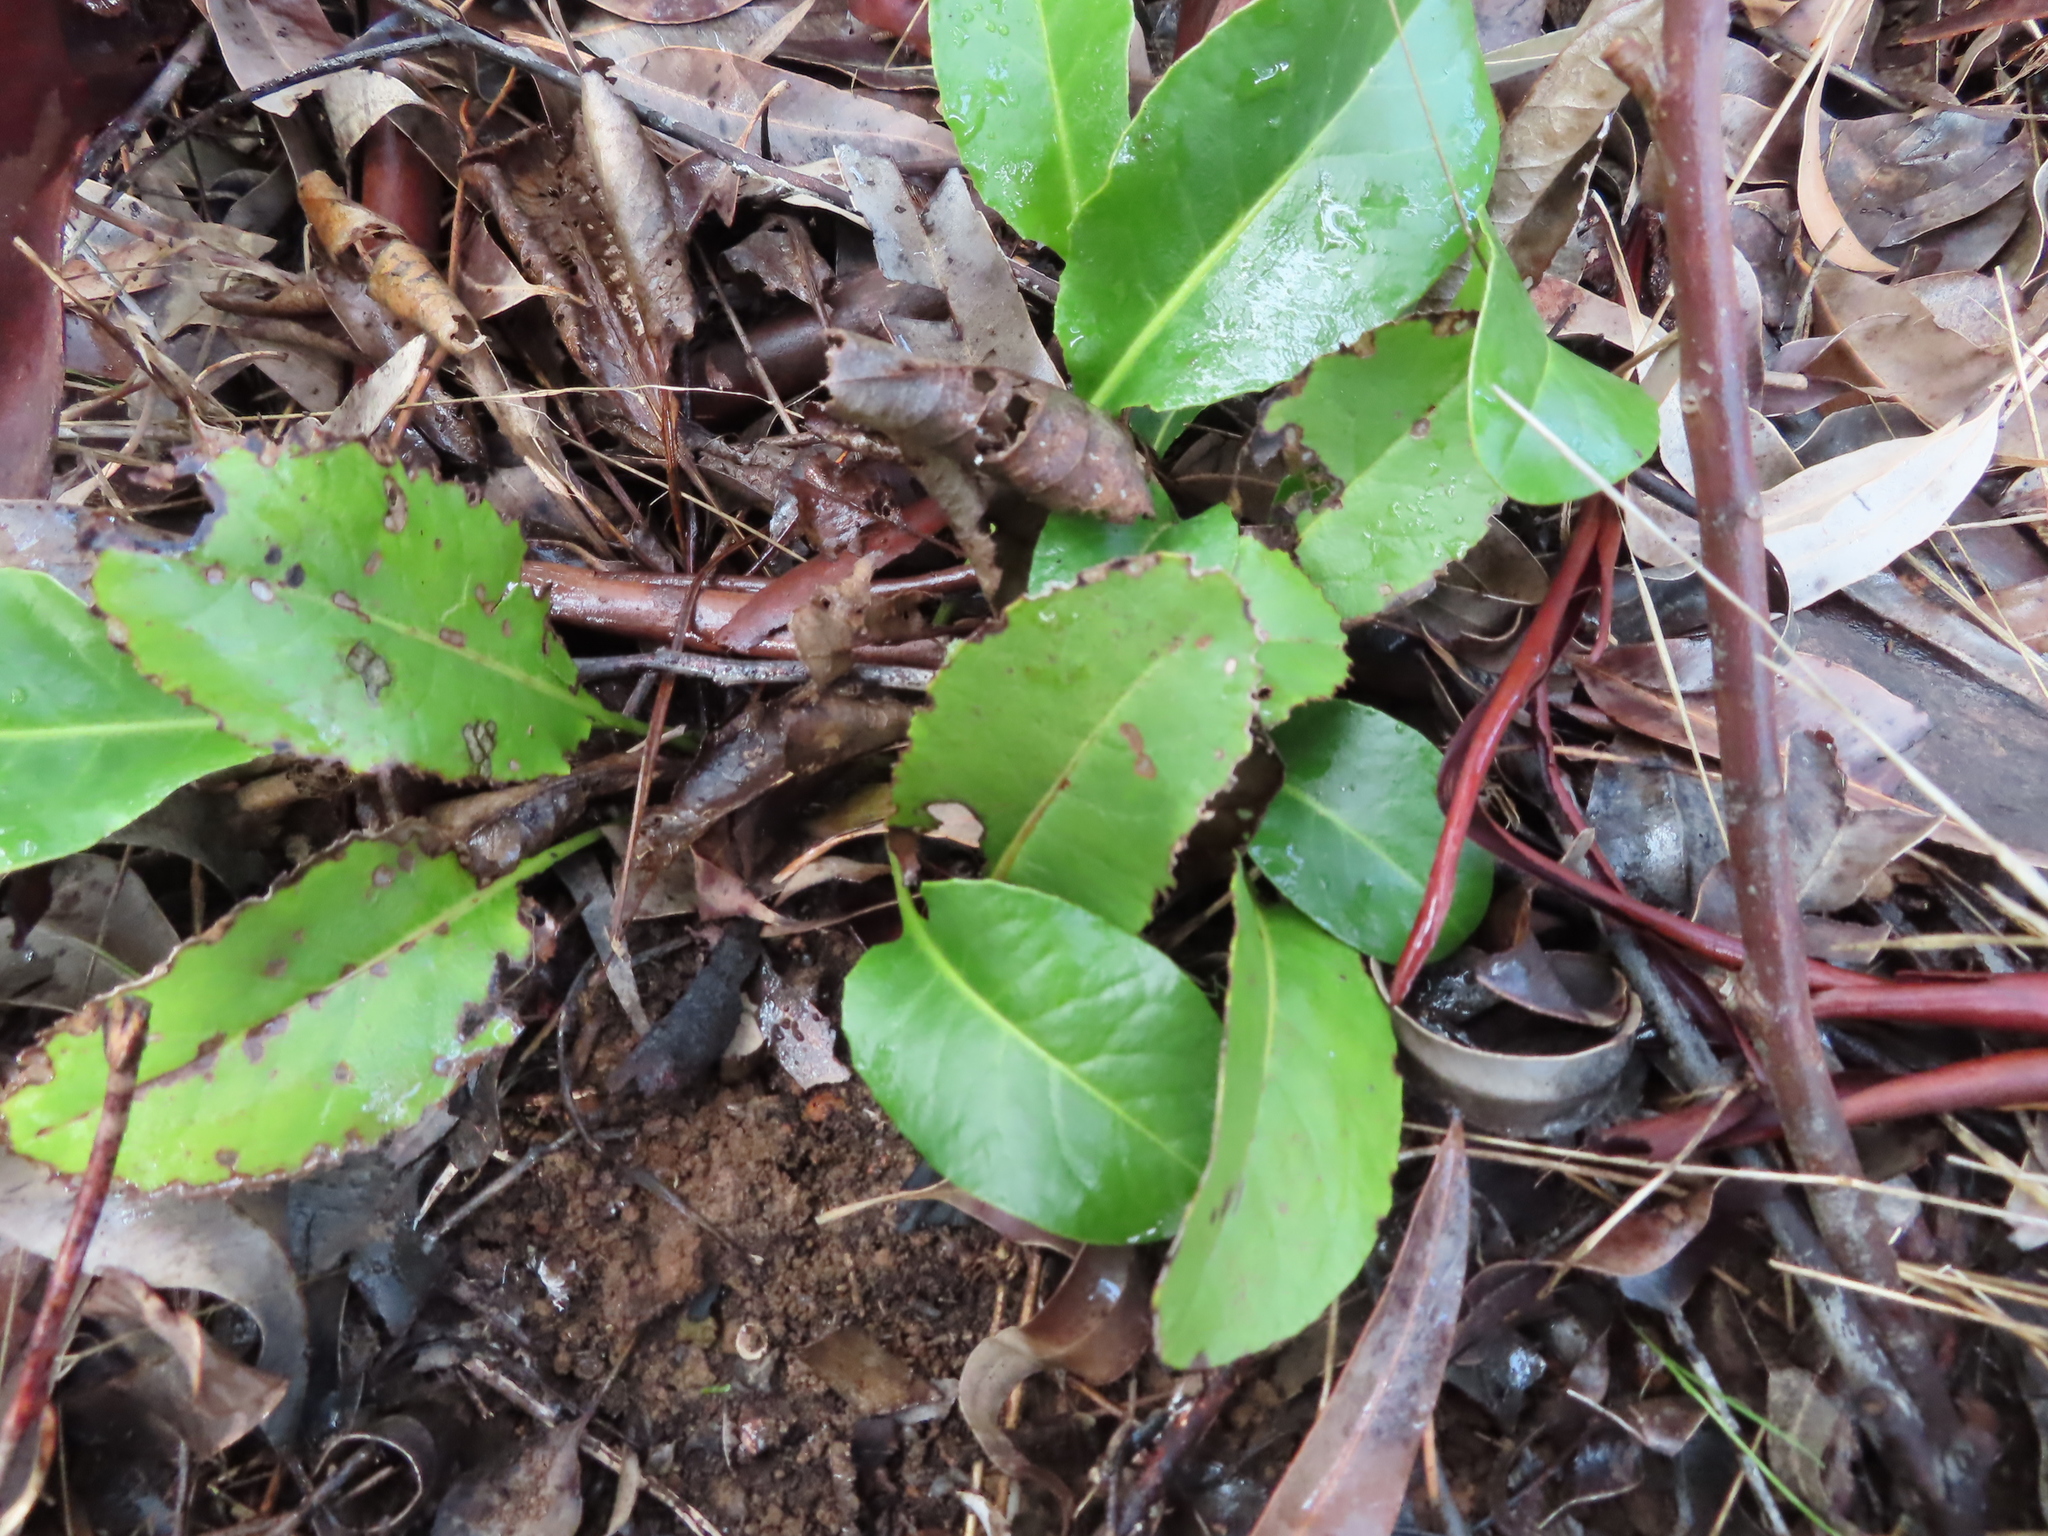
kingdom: Plantae
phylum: Tracheophyta
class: Magnoliopsida
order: Asterales
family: Asteraceae
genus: Gerbera
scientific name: Gerbera tomentosa
